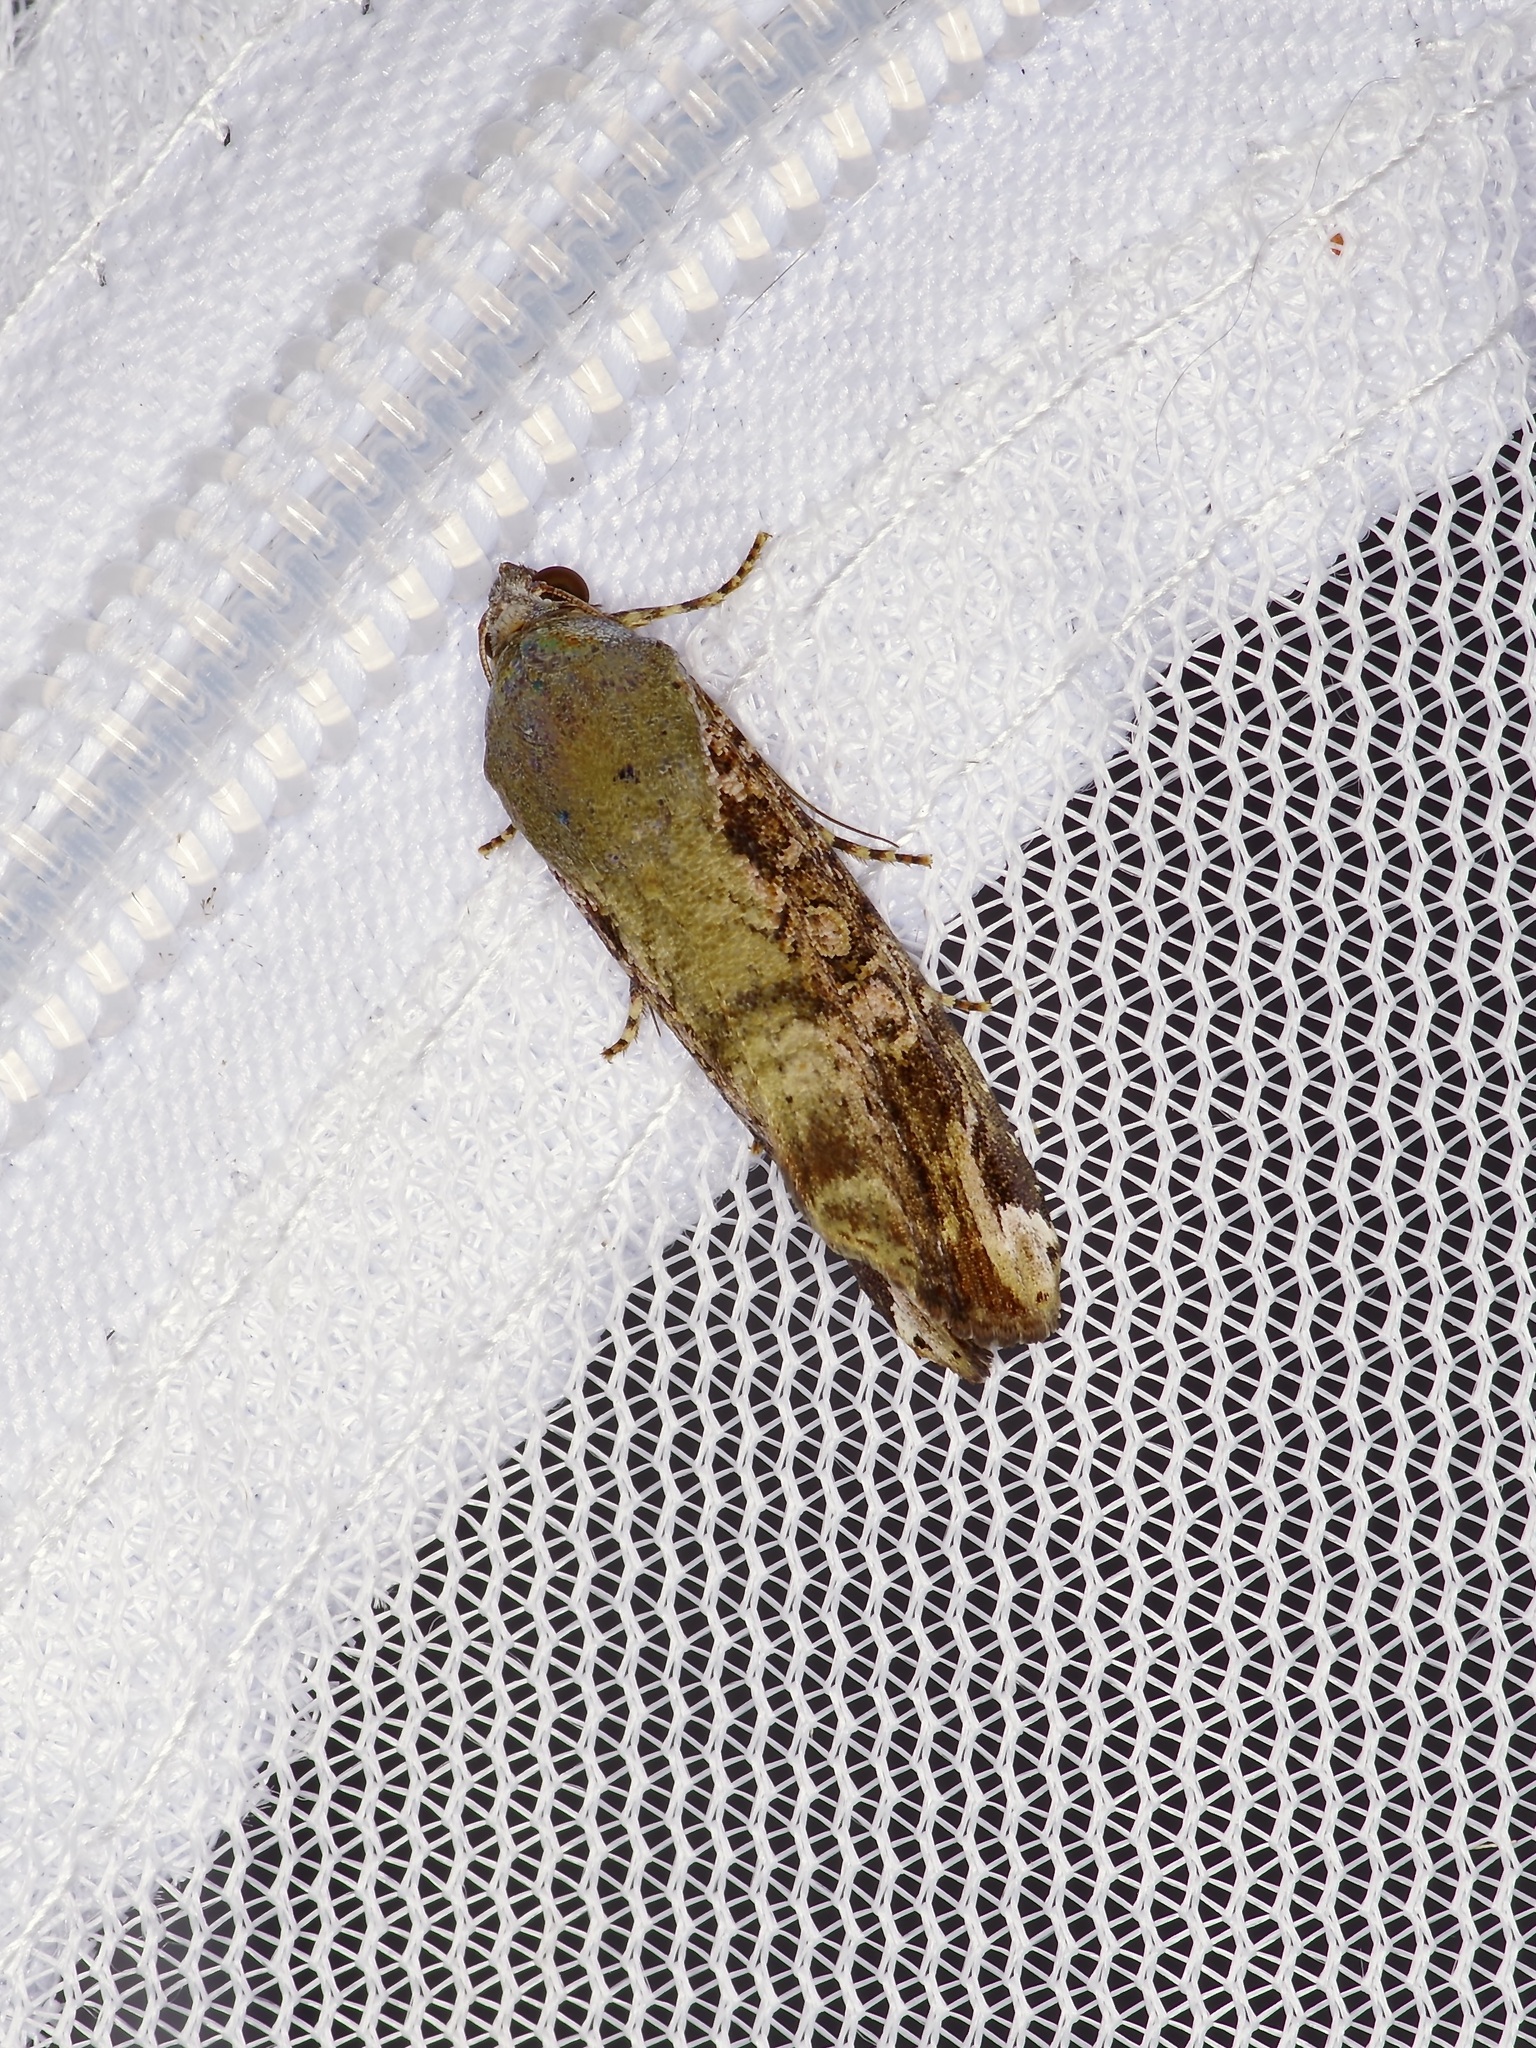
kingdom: Animalia
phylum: Arthropoda
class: Insecta
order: Lepidoptera
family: Noctuidae
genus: Magusa
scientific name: Magusa divaricata
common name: Orb narrow-winged moth
